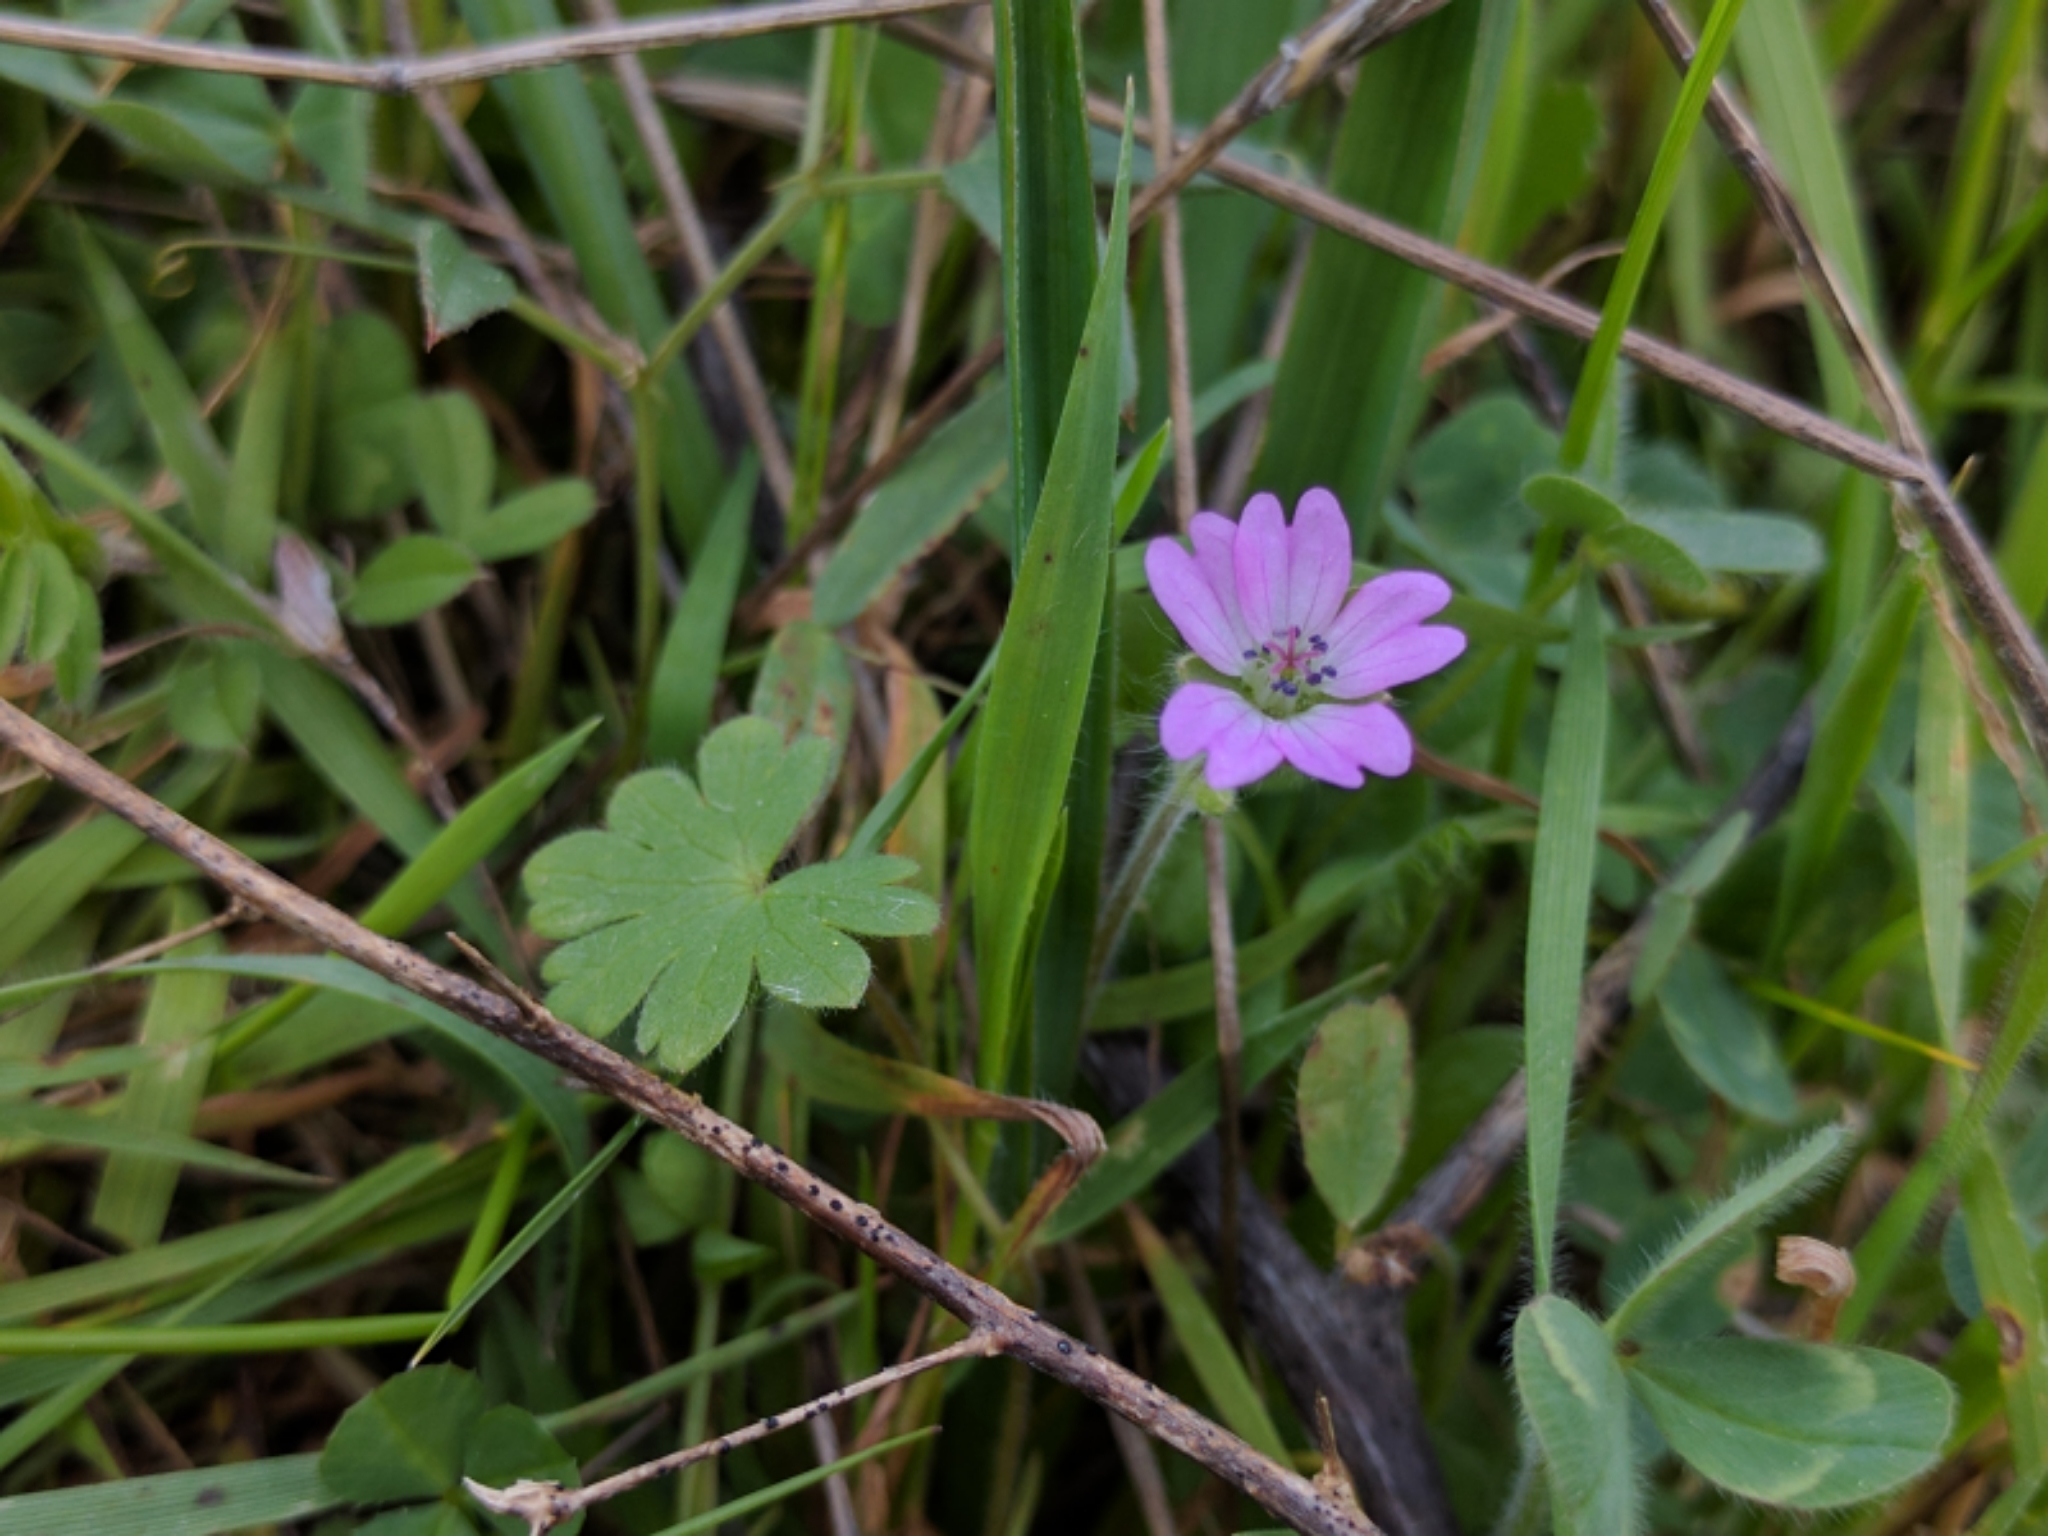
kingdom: Plantae
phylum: Tracheophyta
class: Magnoliopsida
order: Geraniales
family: Geraniaceae
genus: Geranium
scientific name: Geranium molle
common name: Dove's-foot crane's-bill
